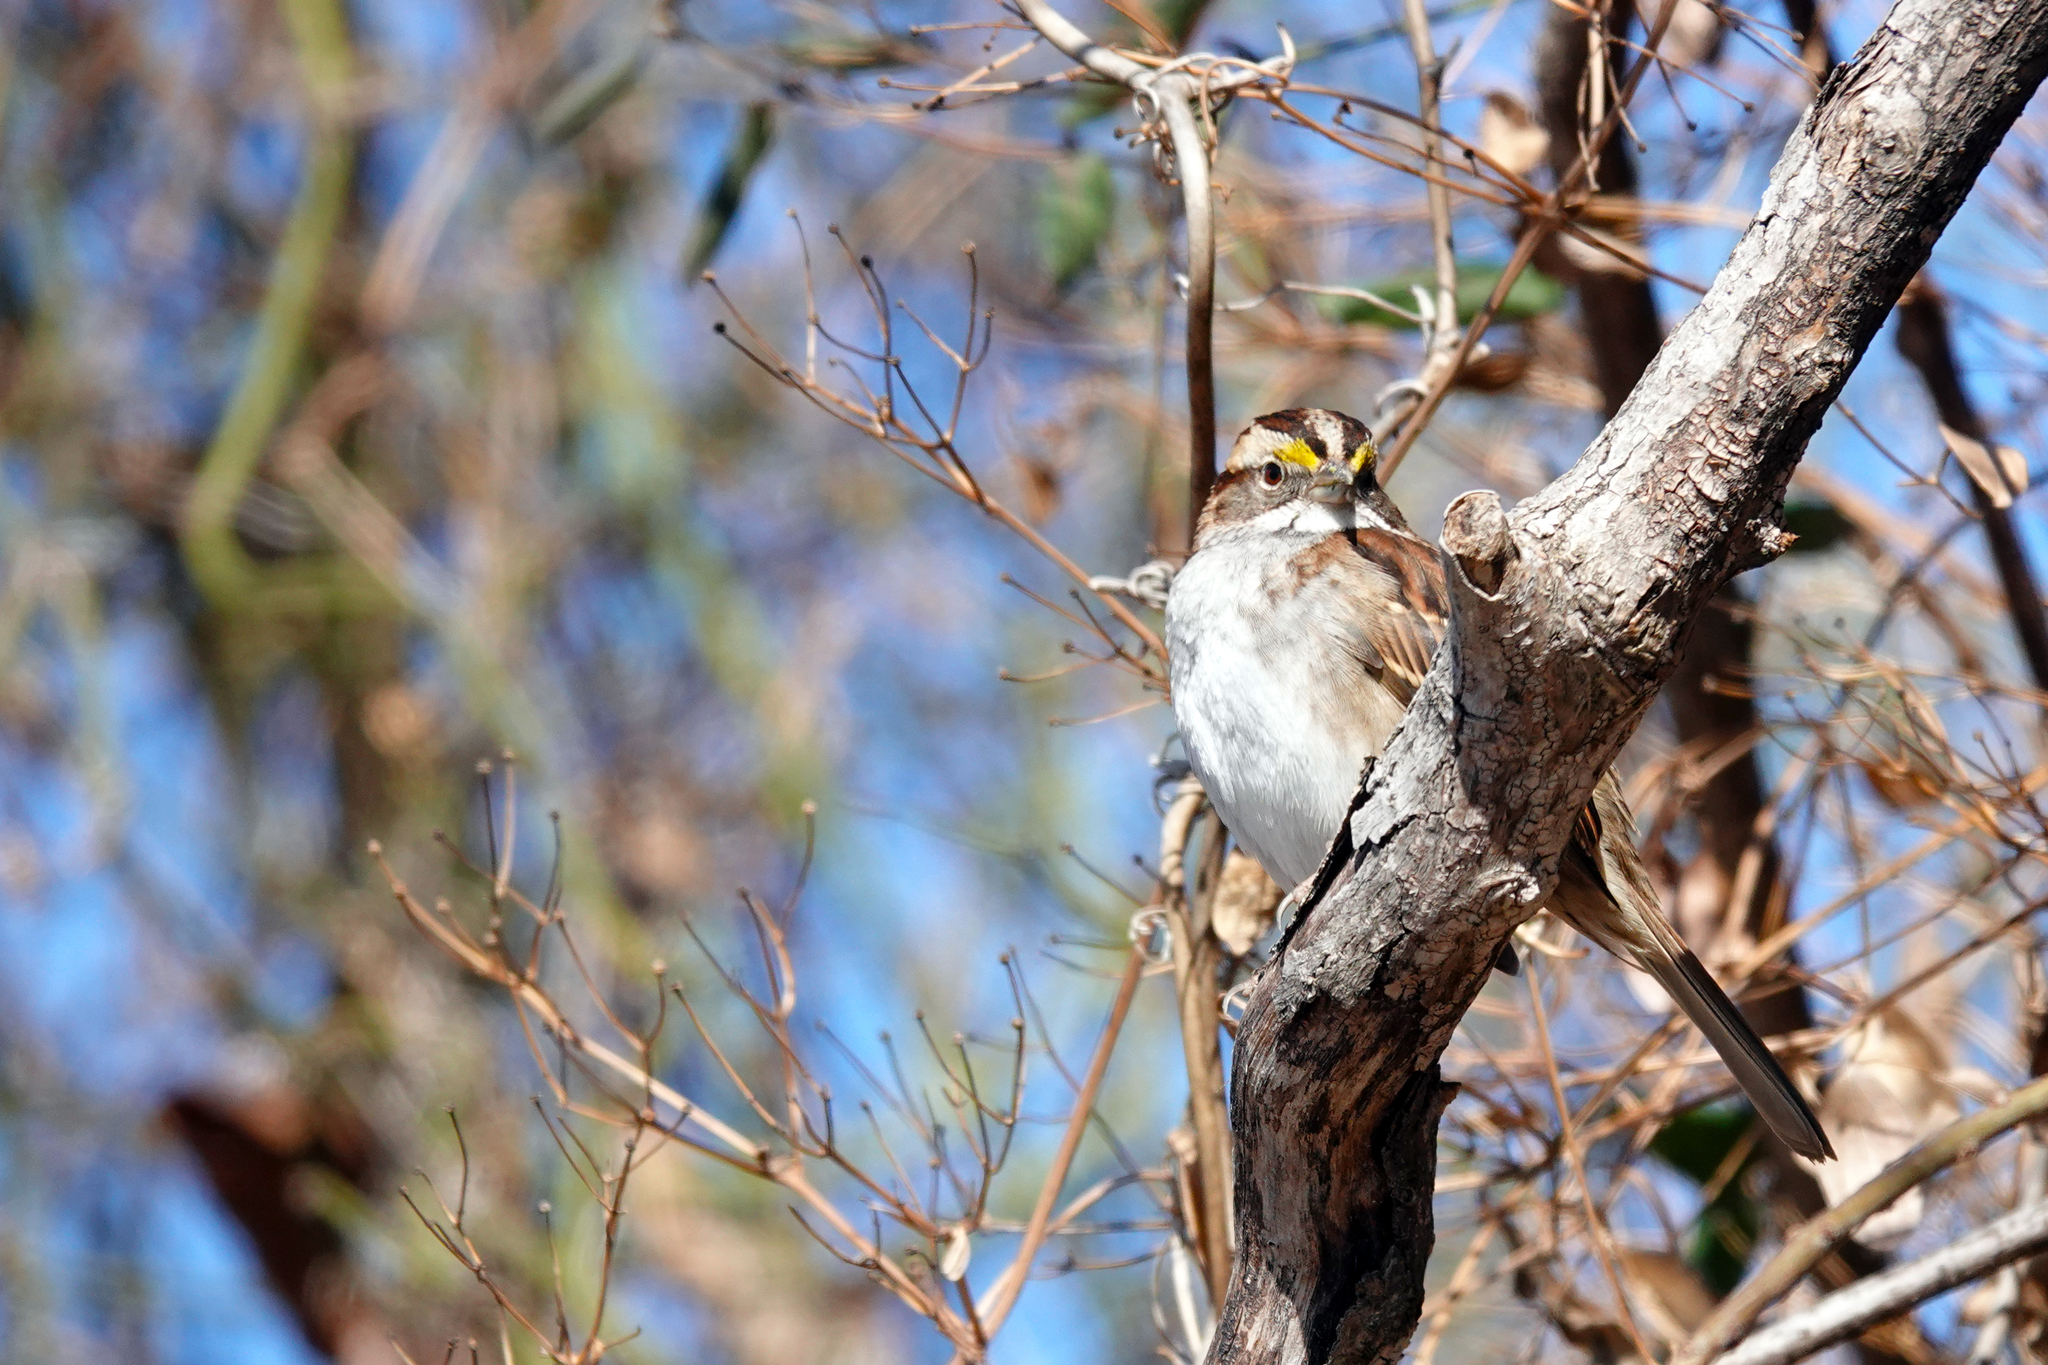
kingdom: Animalia
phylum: Chordata
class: Aves
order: Passeriformes
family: Passerellidae
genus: Zonotrichia
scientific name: Zonotrichia albicollis
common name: White-throated sparrow
